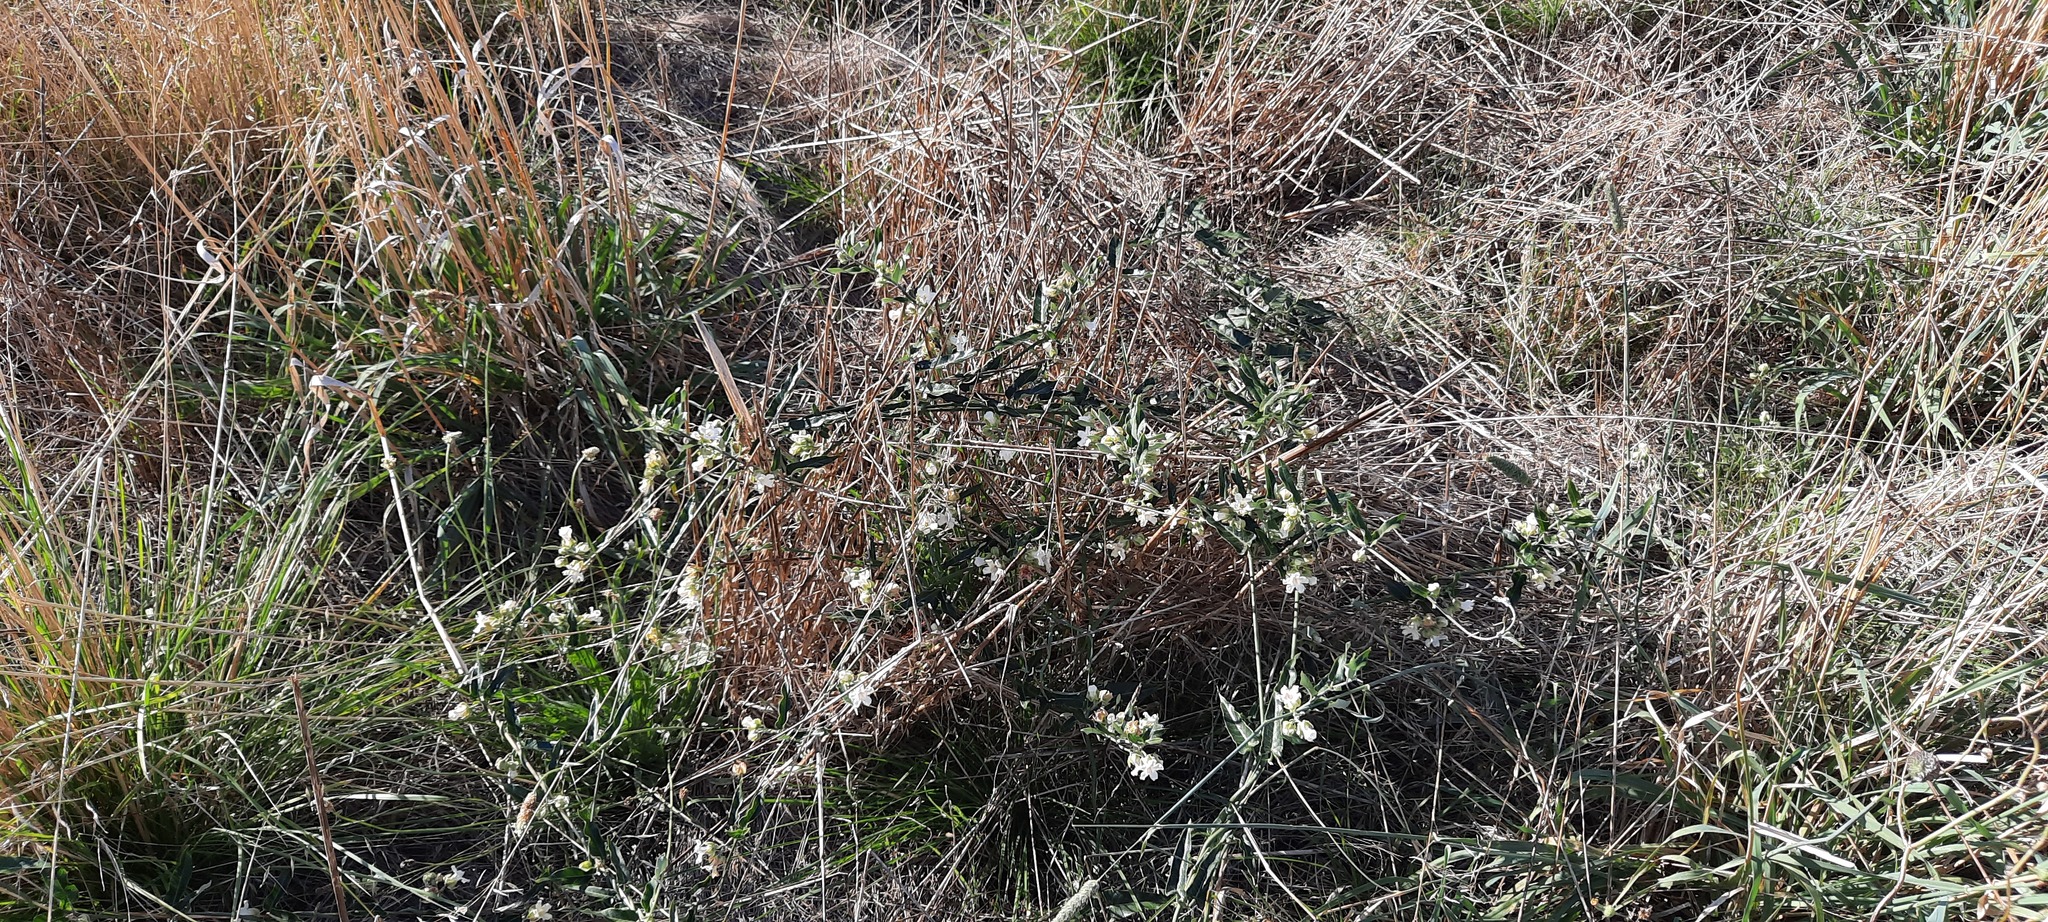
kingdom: Plantae
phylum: Tracheophyta
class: Magnoliopsida
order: Gentianales
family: Apocynaceae
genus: Araujia
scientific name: Araujia sericifera
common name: White bladderflower
